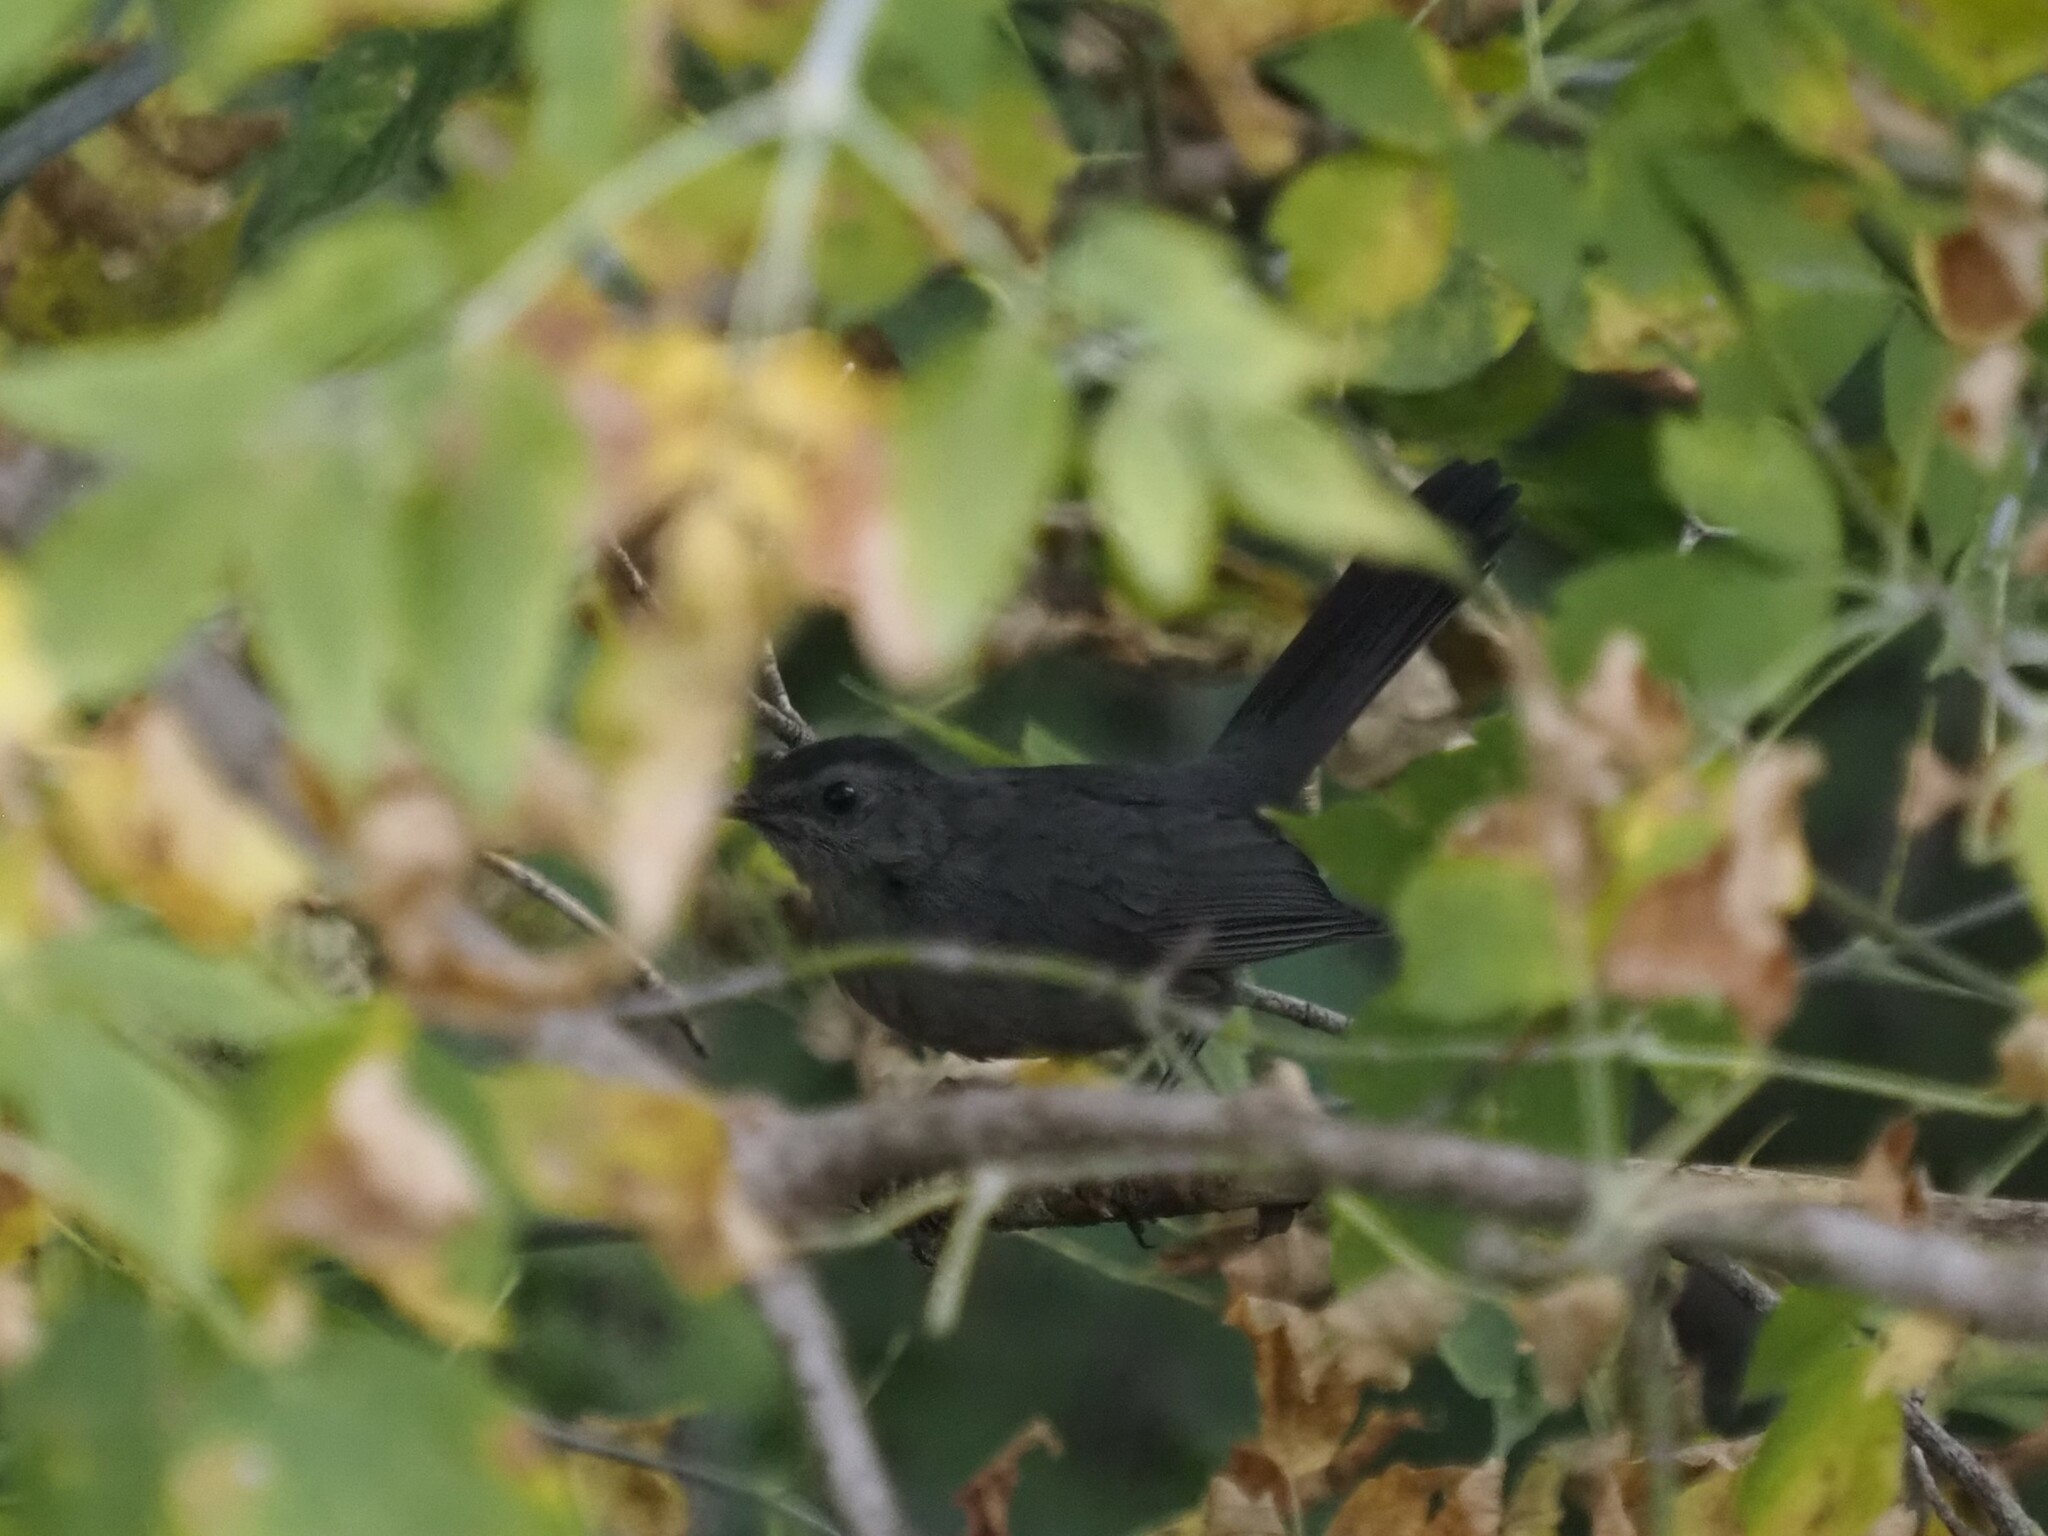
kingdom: Animalia
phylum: Chordata
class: Aves
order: Passeriformes
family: Mimidae
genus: Dumetella
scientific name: Dumetella carolinensis
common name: Gray catbird
